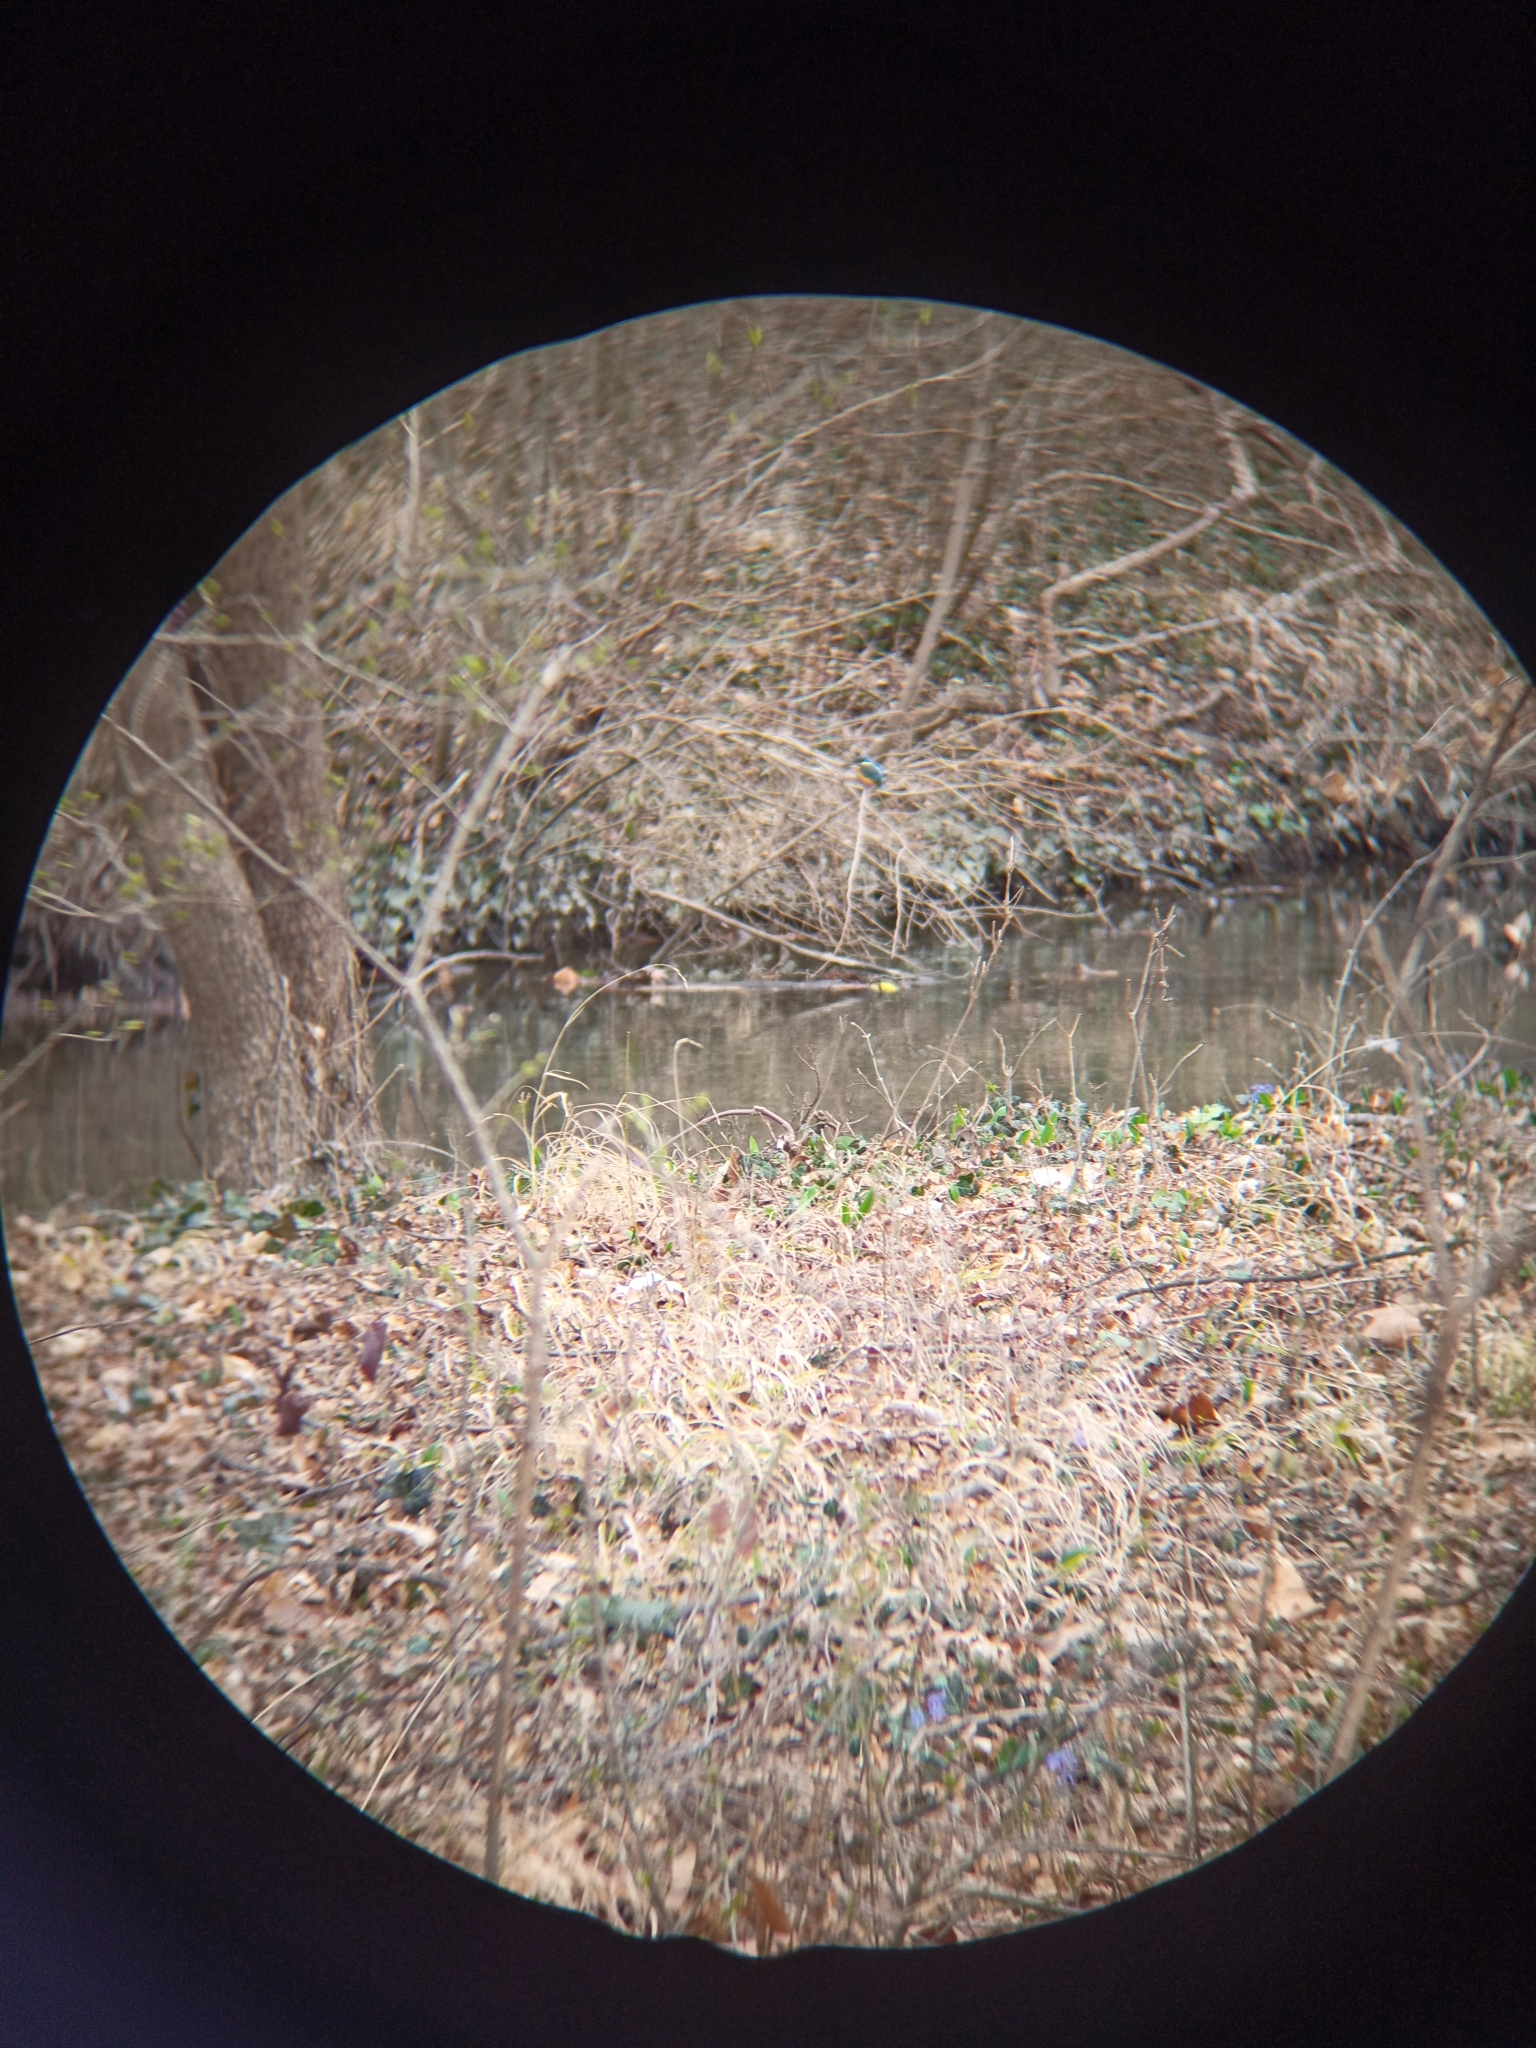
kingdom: Animalia
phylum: Chordata
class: Aves
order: Coraciiformes
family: Alcedinidae
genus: Alcedo
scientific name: Alcedo atthis
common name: Common kingfisher
